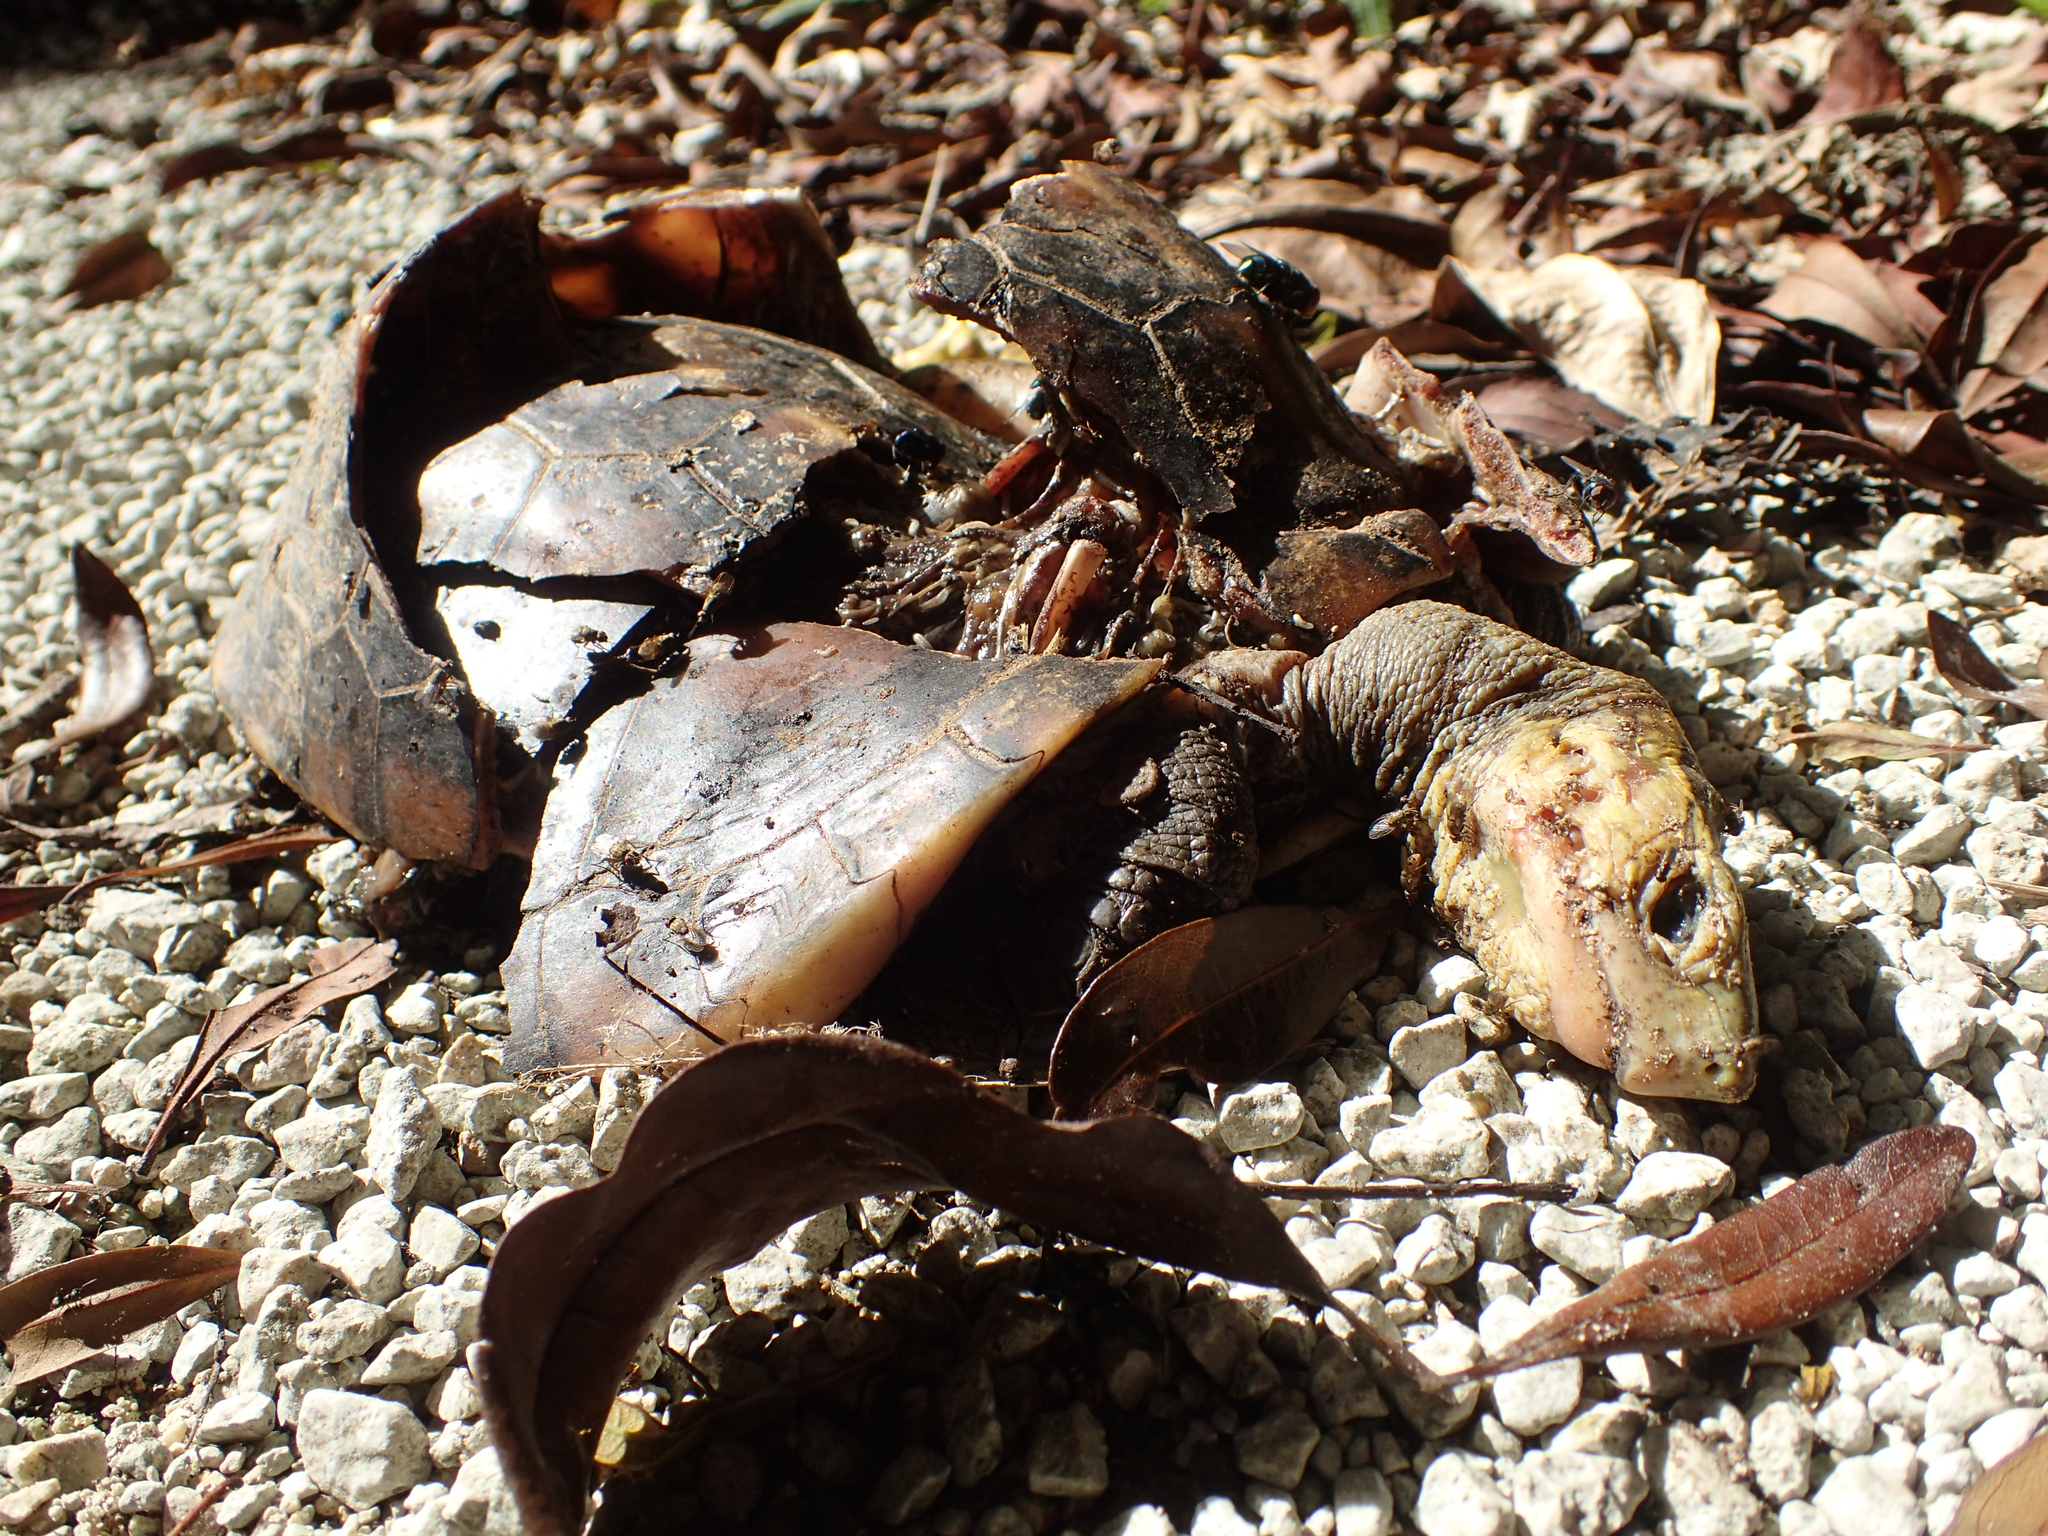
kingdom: Animalia
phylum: Chordata
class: Testudines
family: Geoemydidae
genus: Cuora
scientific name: Cuora flavomarginata
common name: Yellow-margined box turtle
